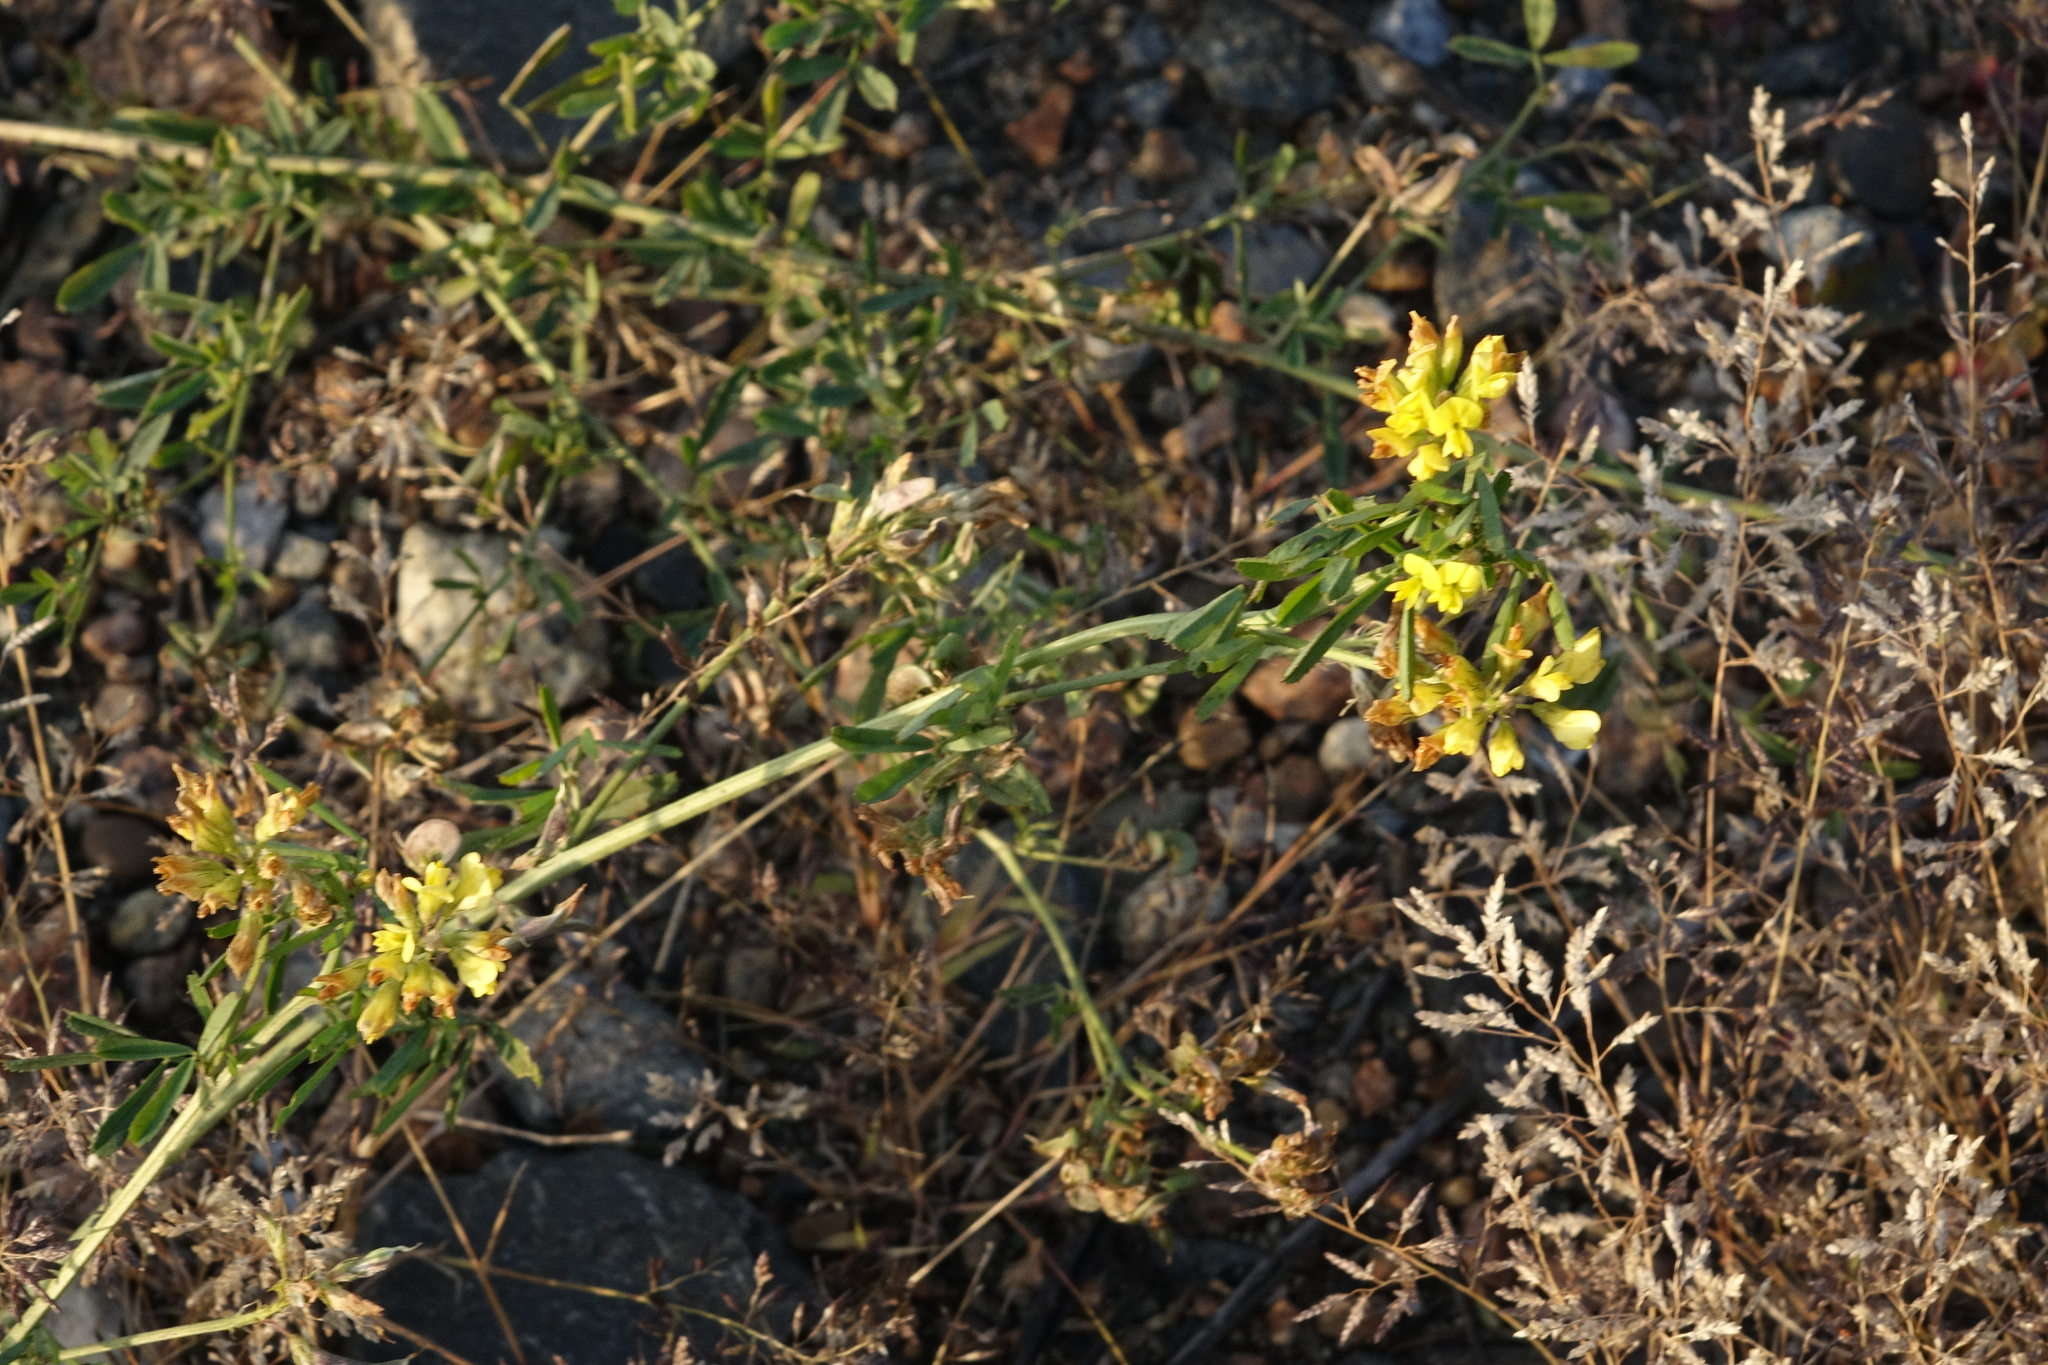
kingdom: Plantae
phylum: Tracheophyta
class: Magnoliopsida
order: Fabales
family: Fabaceae
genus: Medicago
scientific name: Medicago falcata
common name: Sickle medick
